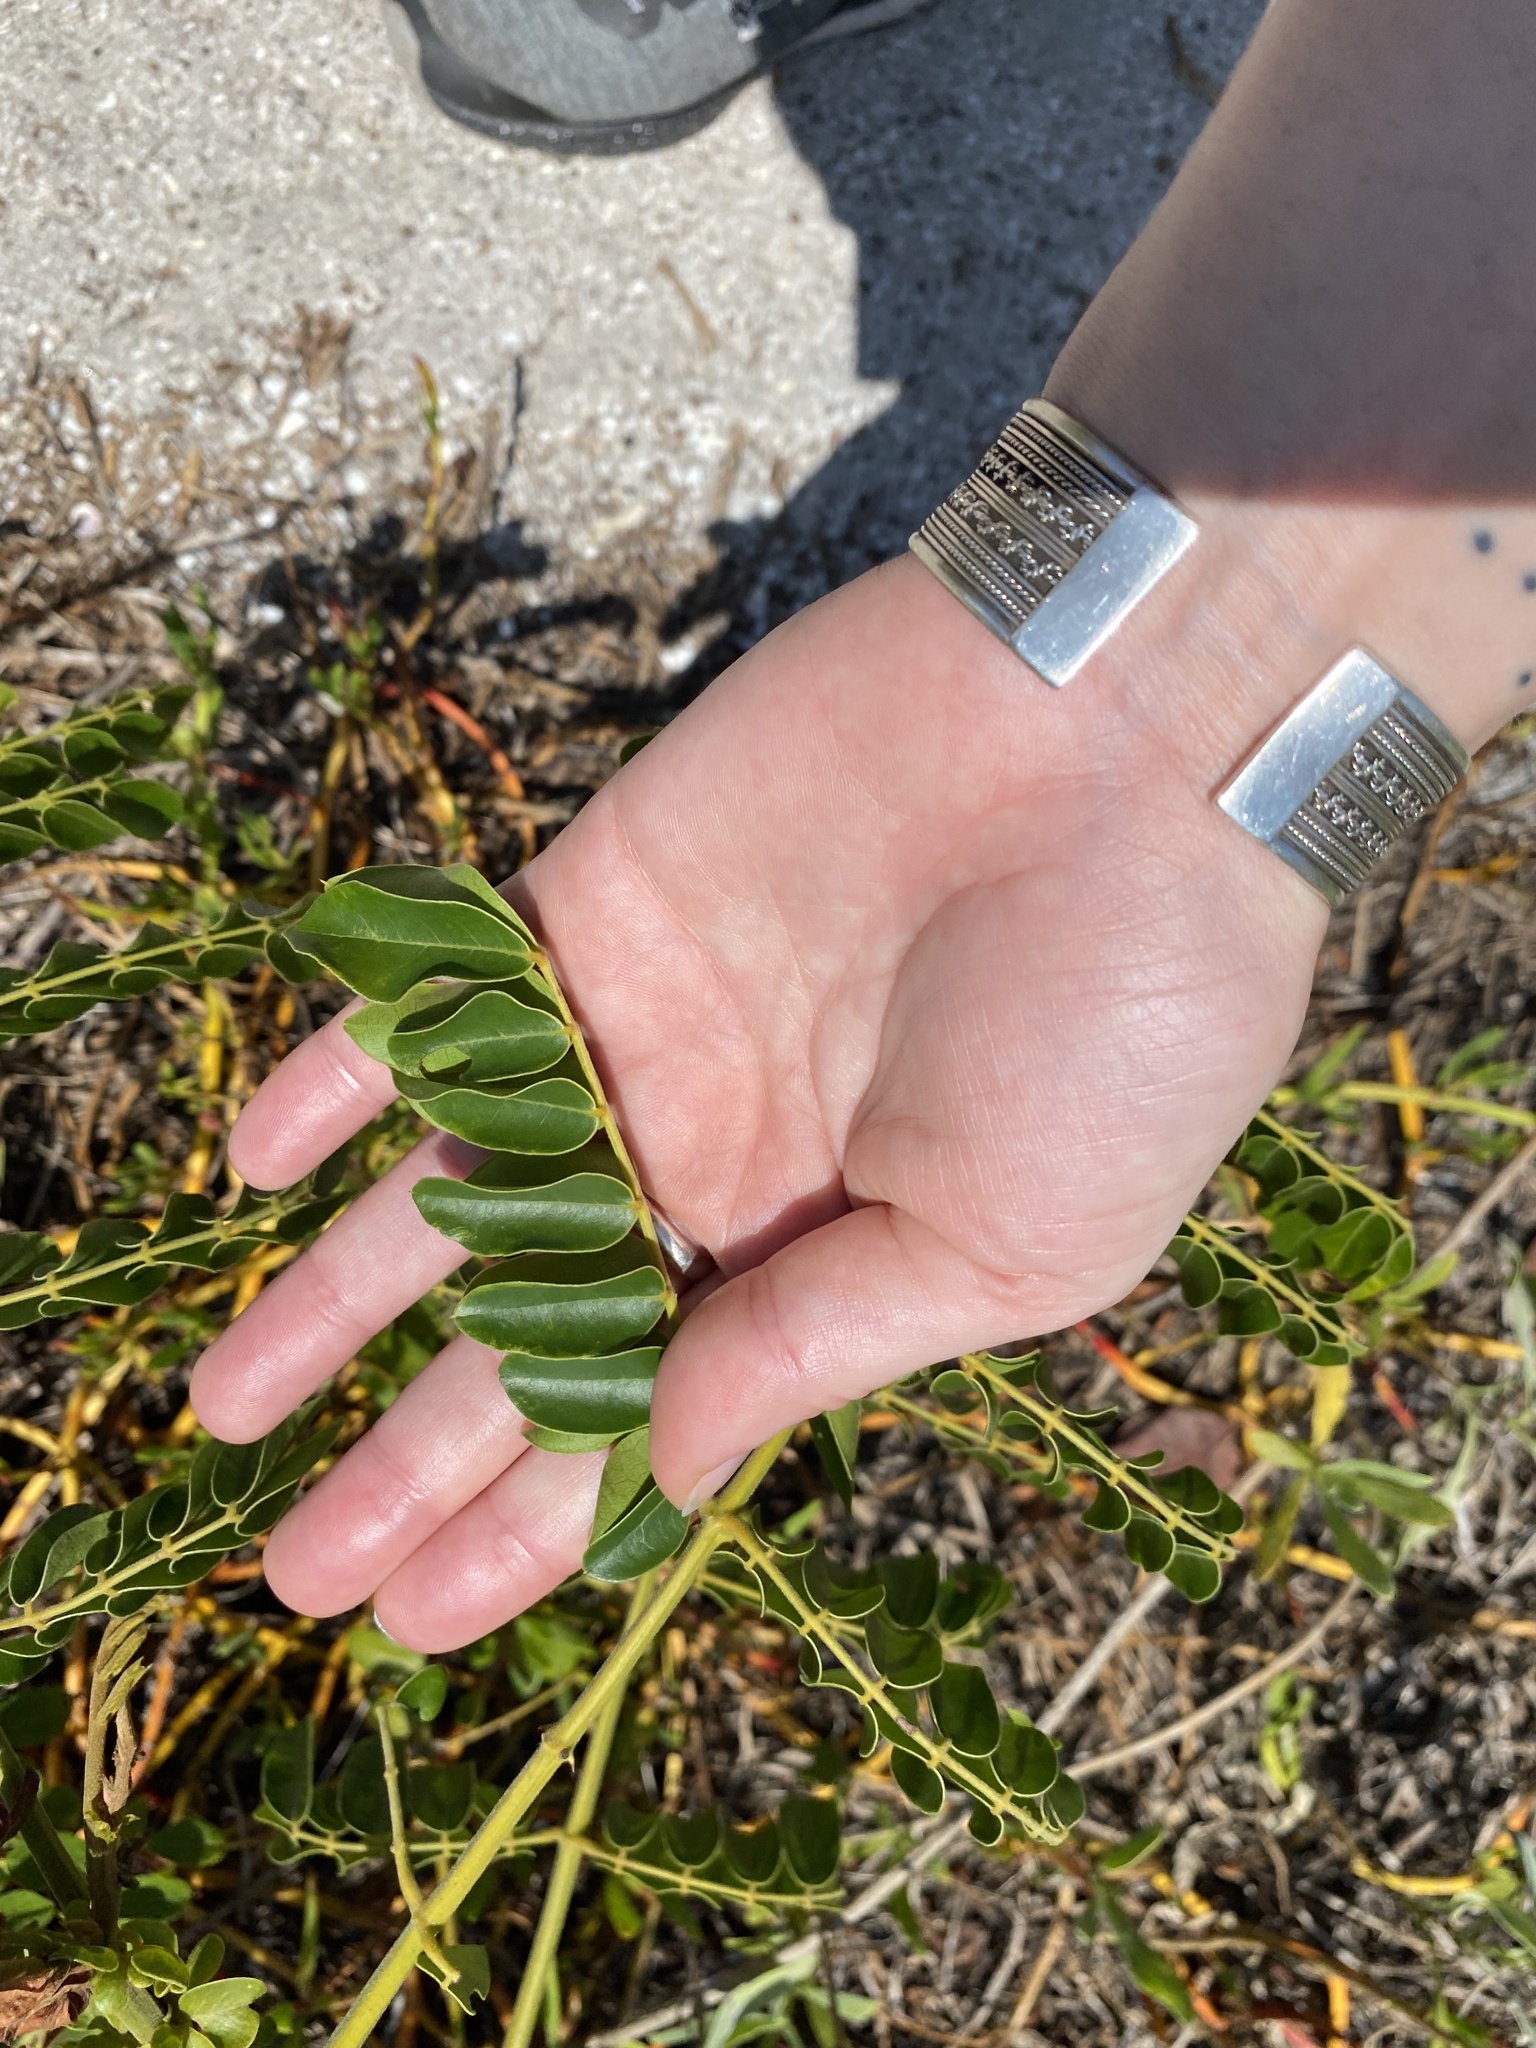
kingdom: Plantae
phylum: Tracheophyta
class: Magnoliopsida
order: Fabales
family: Fabaceae
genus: Guilandina
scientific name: Guilandina bonduc
